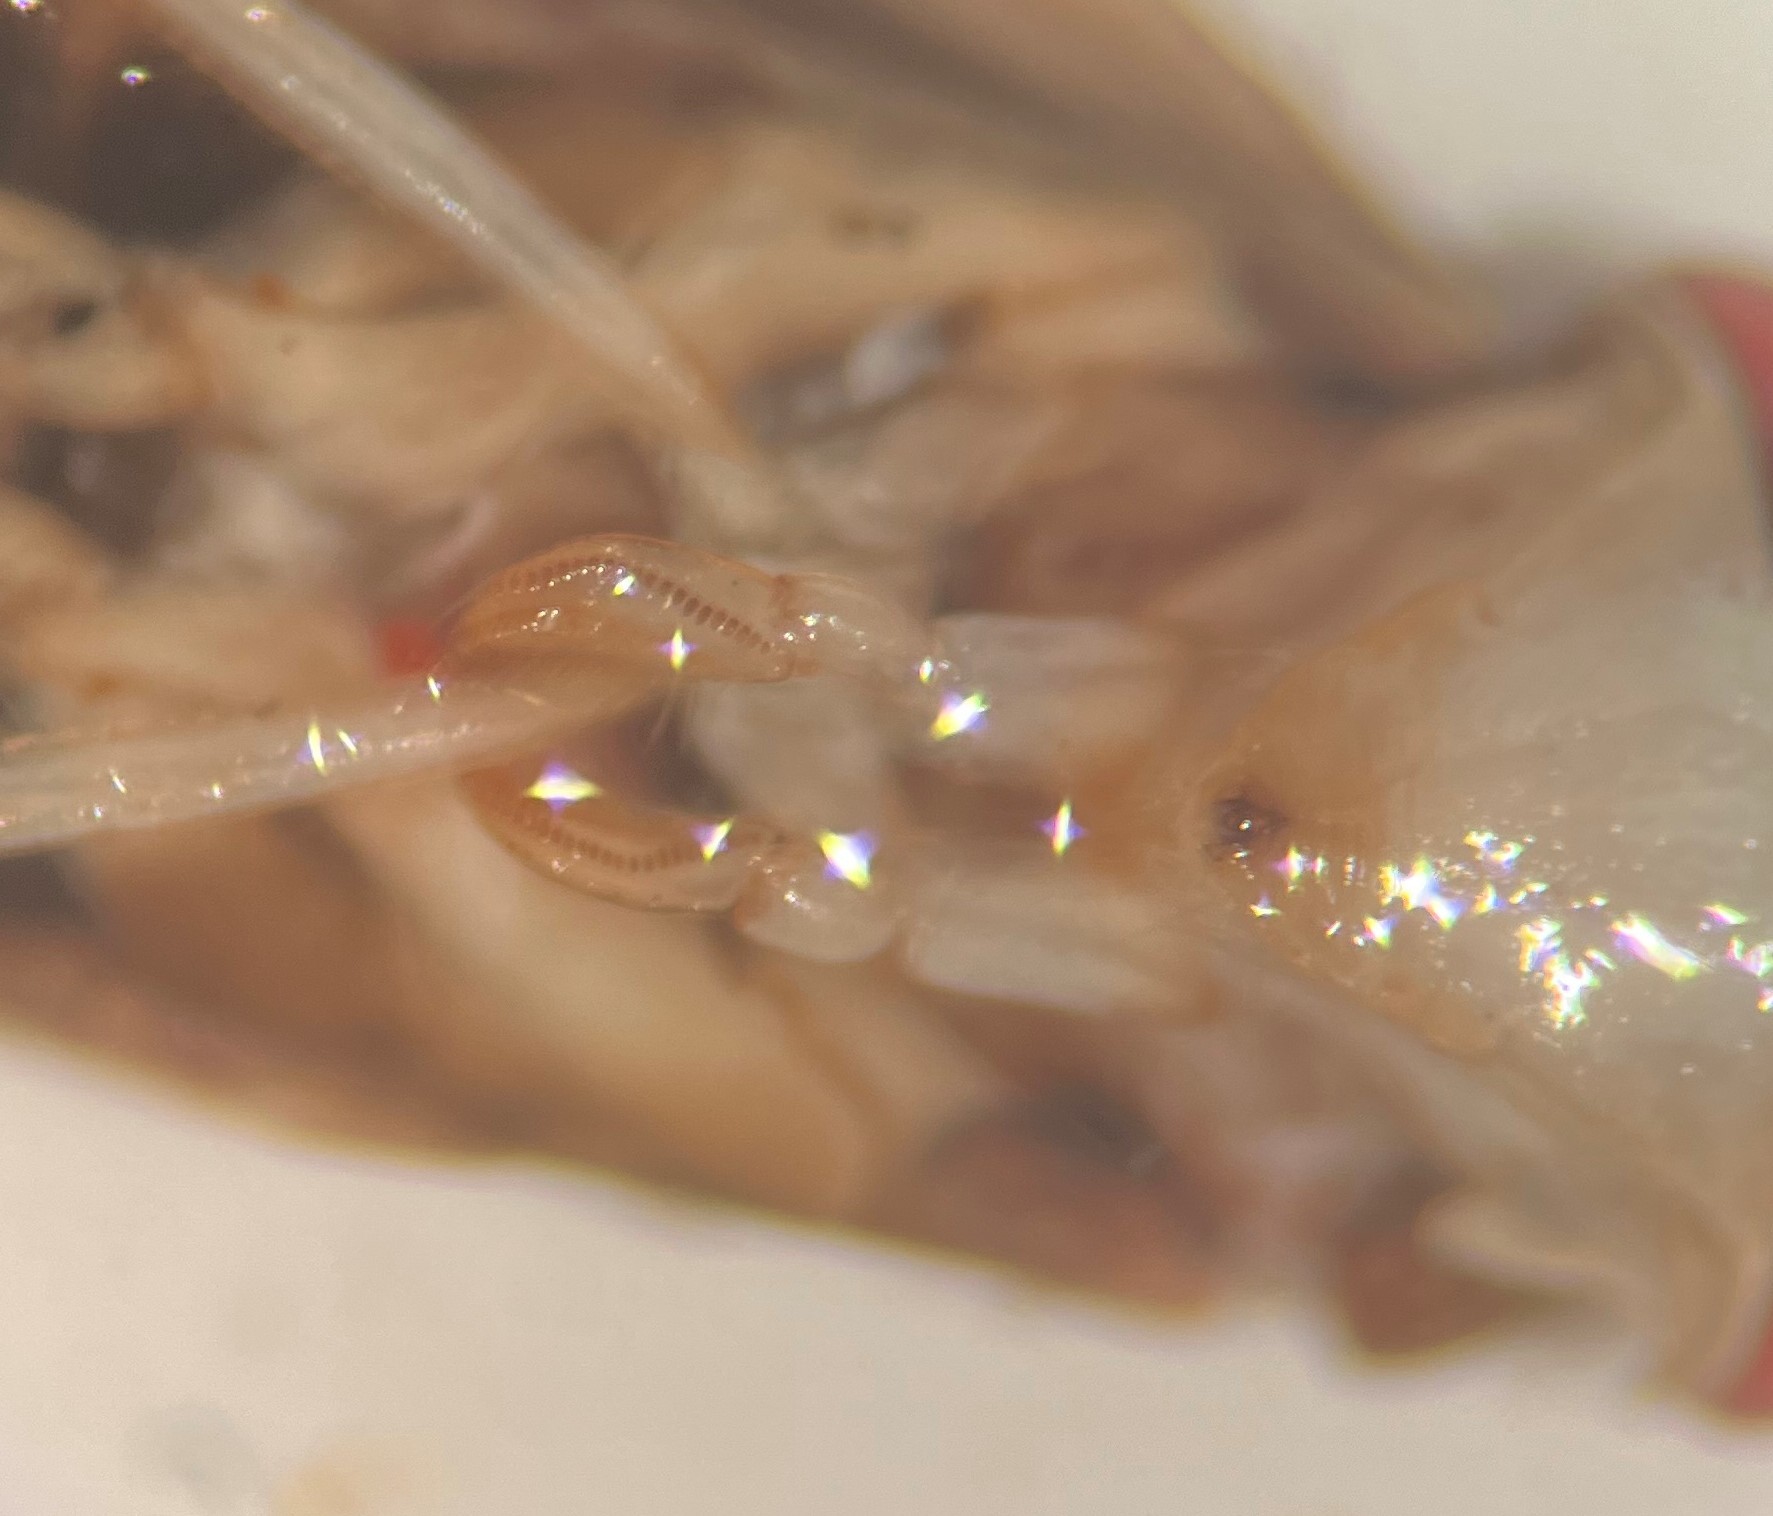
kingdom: Animalia
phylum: Arthropoda
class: Insecta
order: Hemiptera
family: Corixidae
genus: Sigara
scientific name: Sigara zimmermanni
